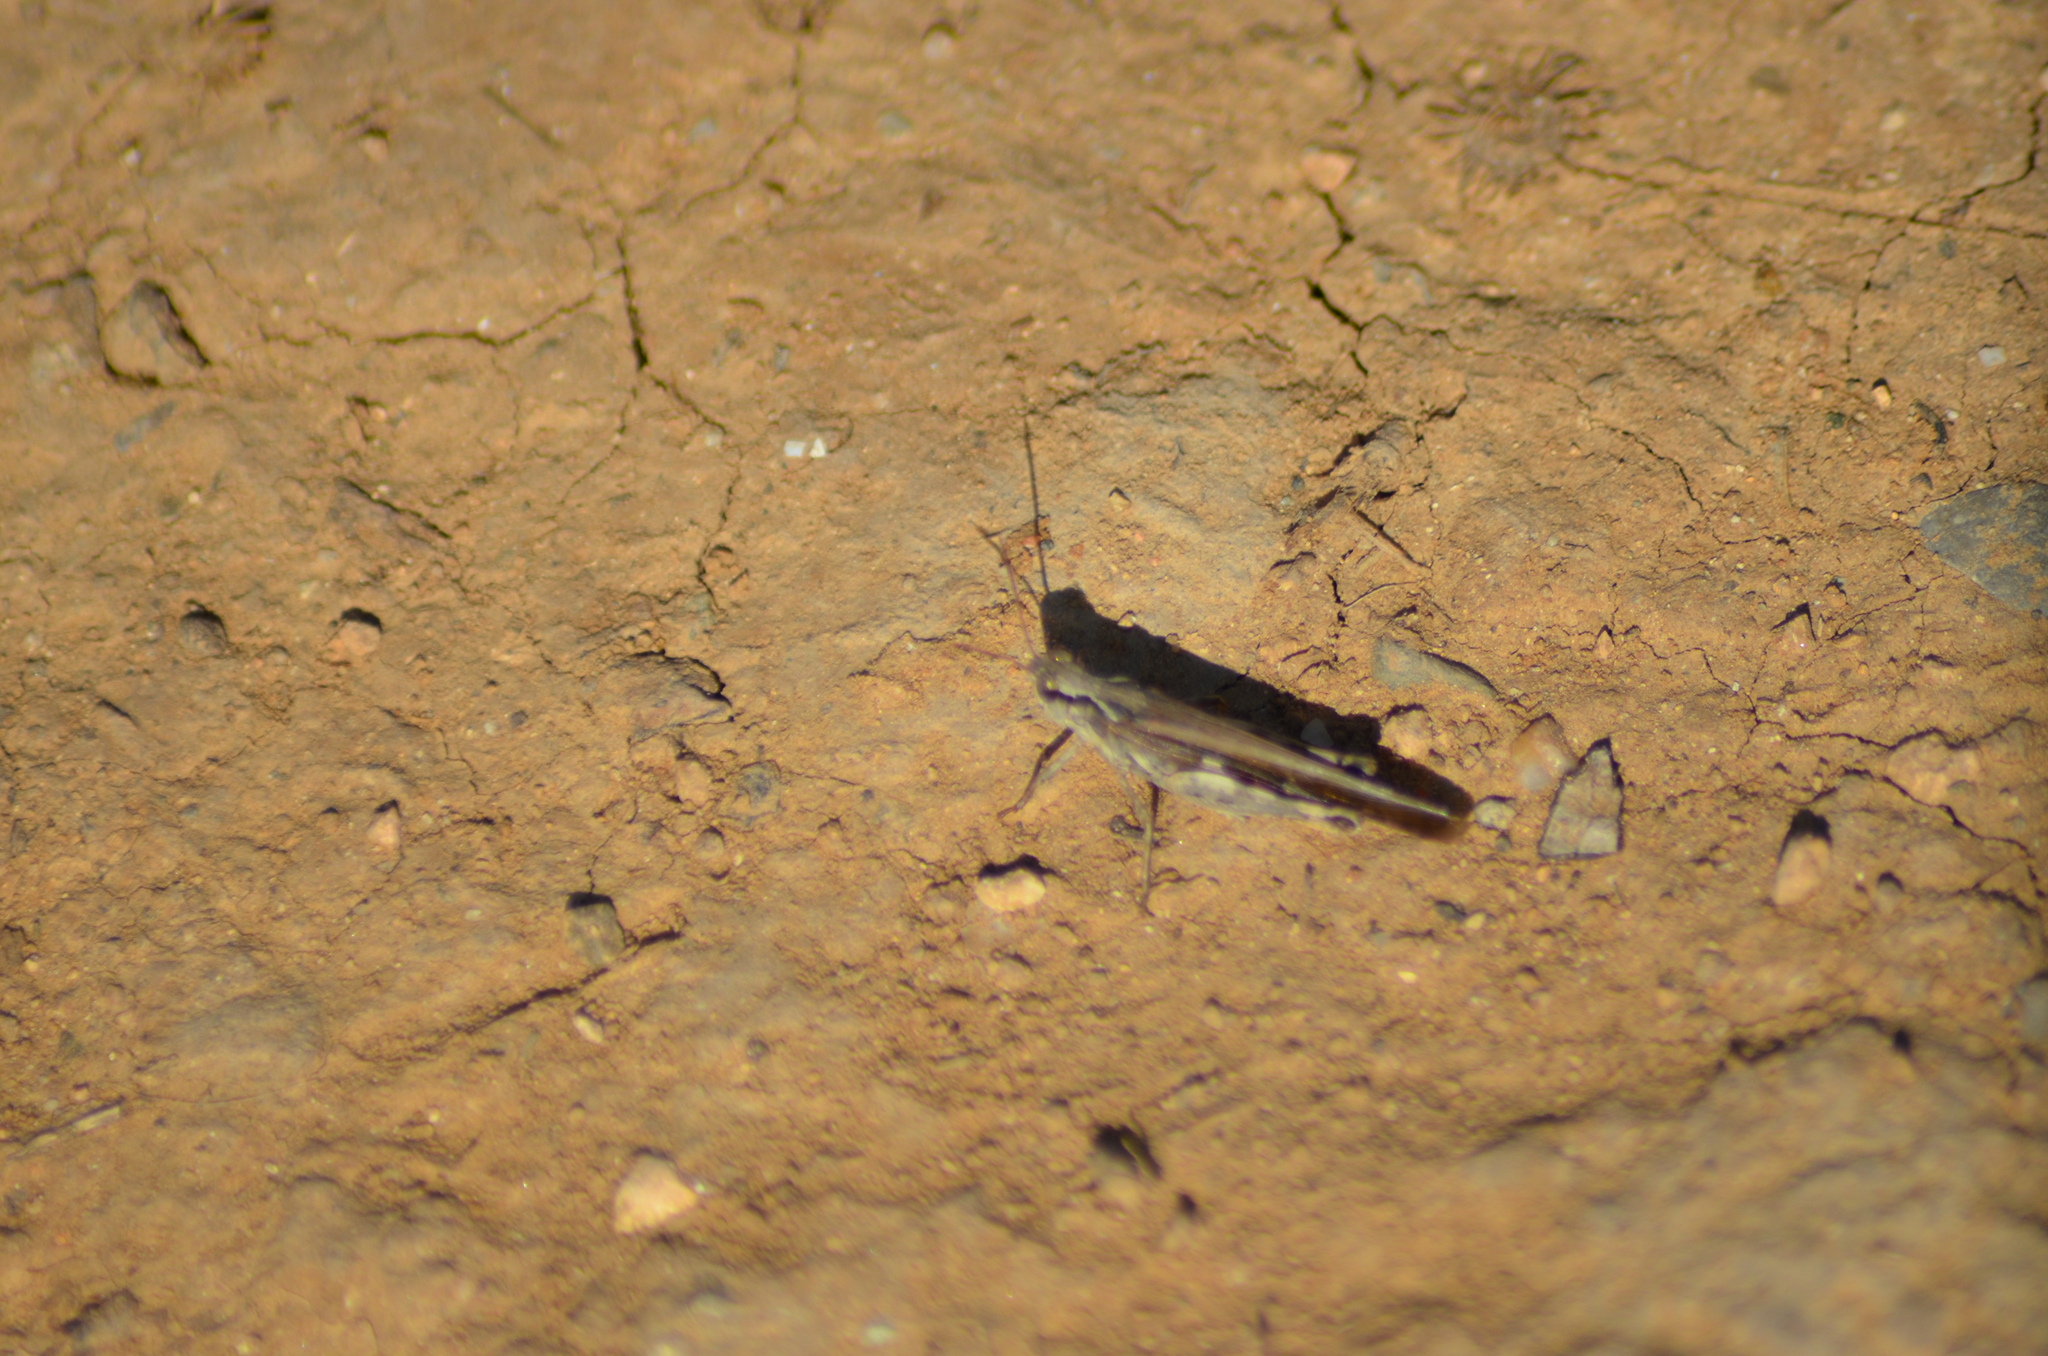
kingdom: Animalia
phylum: Arthropoda
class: Insecta
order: Orthoptera
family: Acrididae
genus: Aiolopus
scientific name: Aiolopus puissanti
